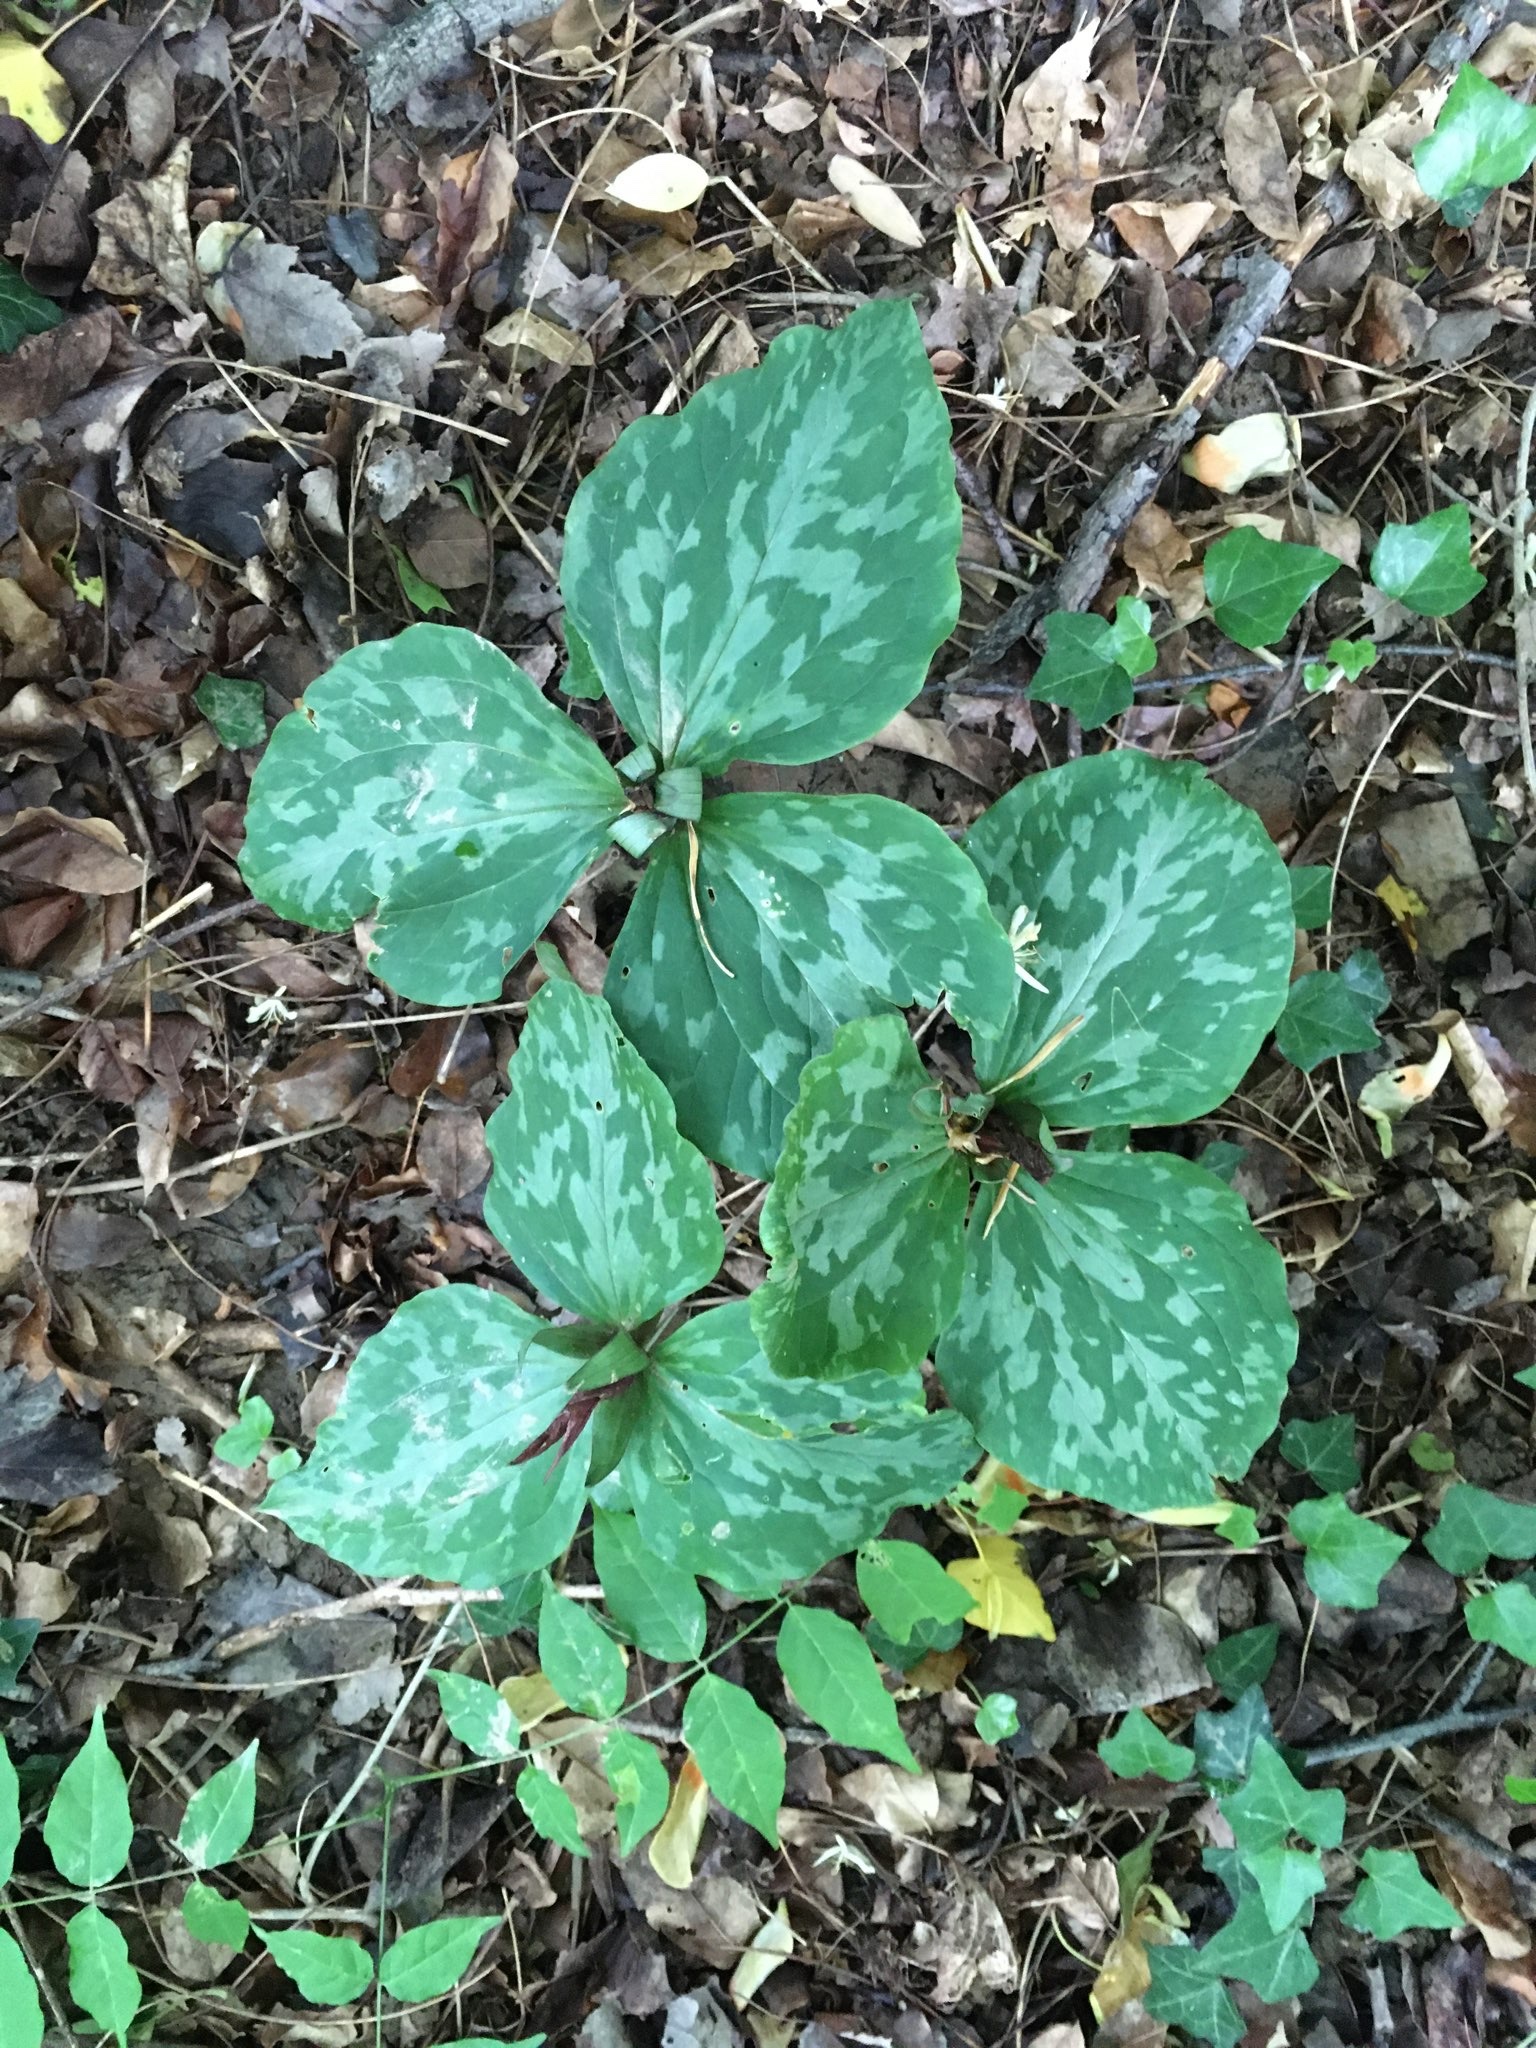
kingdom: Plantae
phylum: Tracheophyta
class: Liliopsida
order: Liliales
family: Melanthiaceae
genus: Trillium
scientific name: Trillium cuneatum
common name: Cuneate trillium
